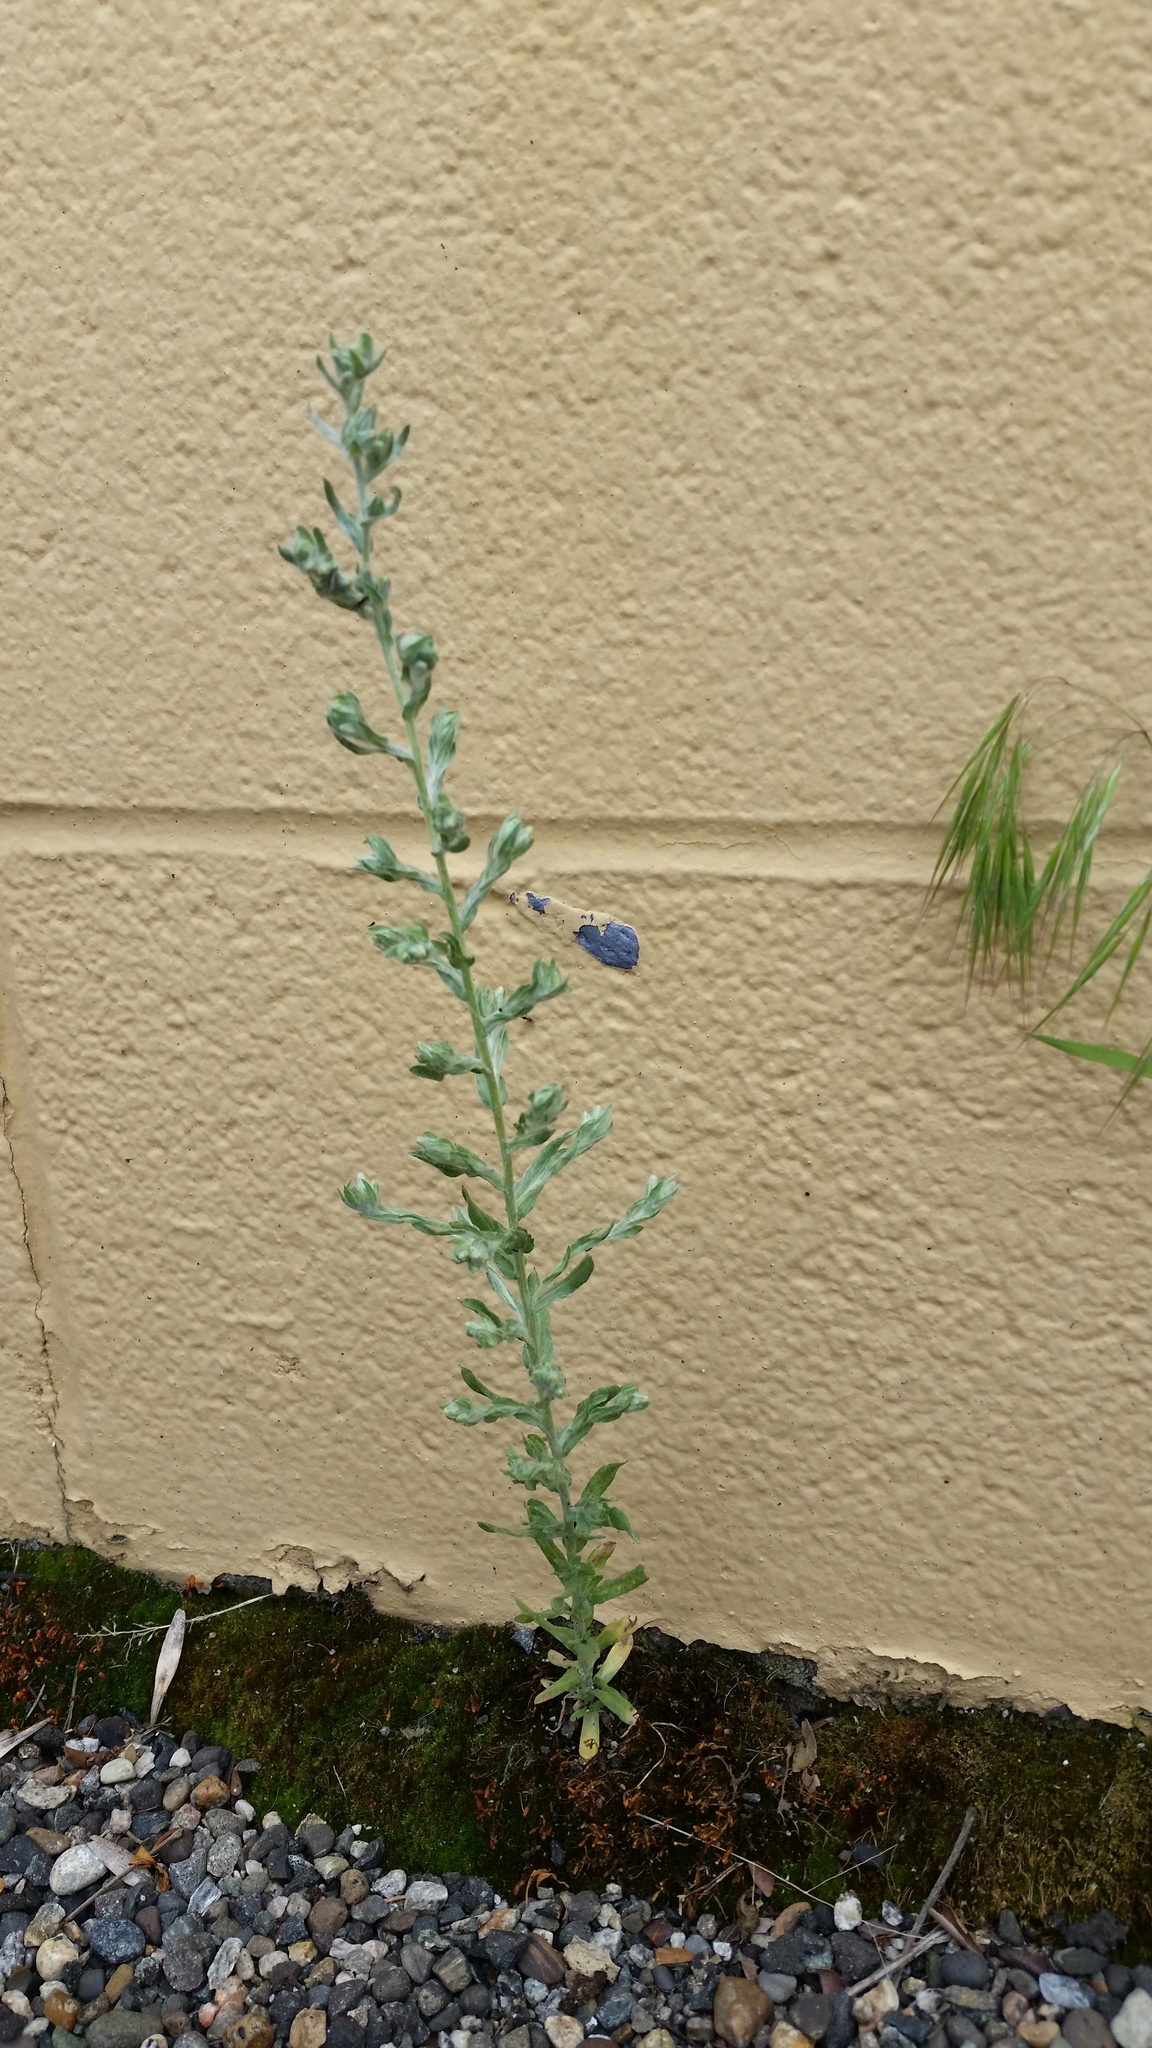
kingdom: Plantae
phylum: Tracheophyta
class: Magnoliopsida
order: Asterales
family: Asteraceae
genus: Filago
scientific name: Filago arvensis
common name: Field cudweed
